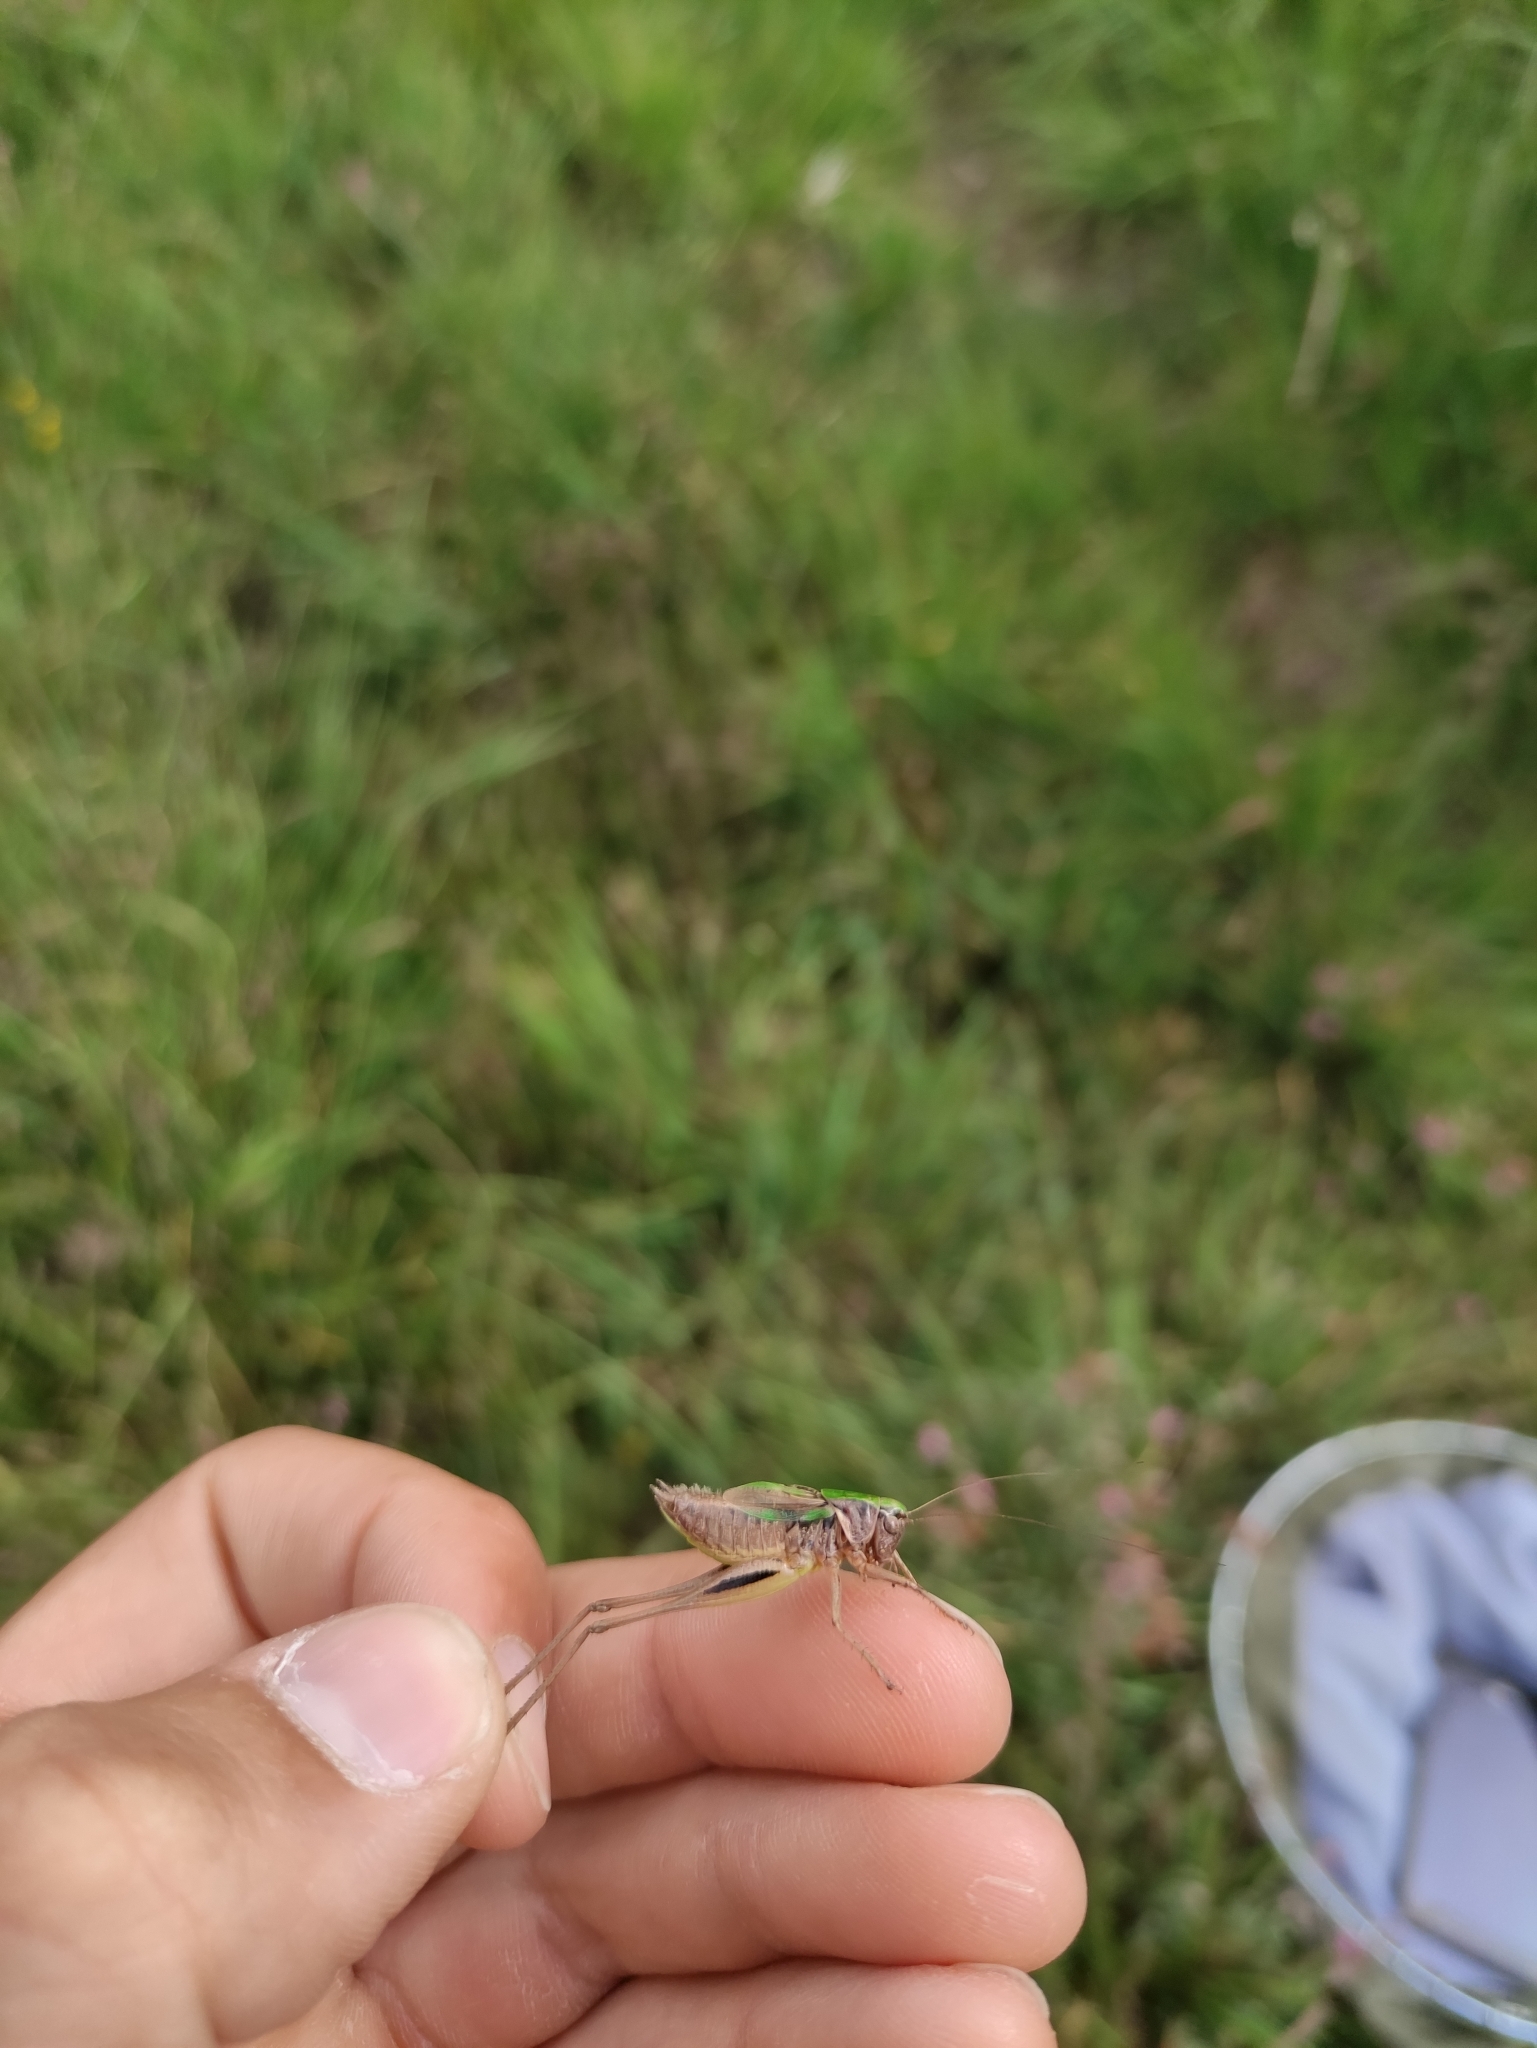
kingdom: Animalia
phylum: Arthropoda
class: Insecta
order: Orthoptera
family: Tettigoniidae
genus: Metrioptera
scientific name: Metrioptera brachyptera
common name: Bog bush-cricket
